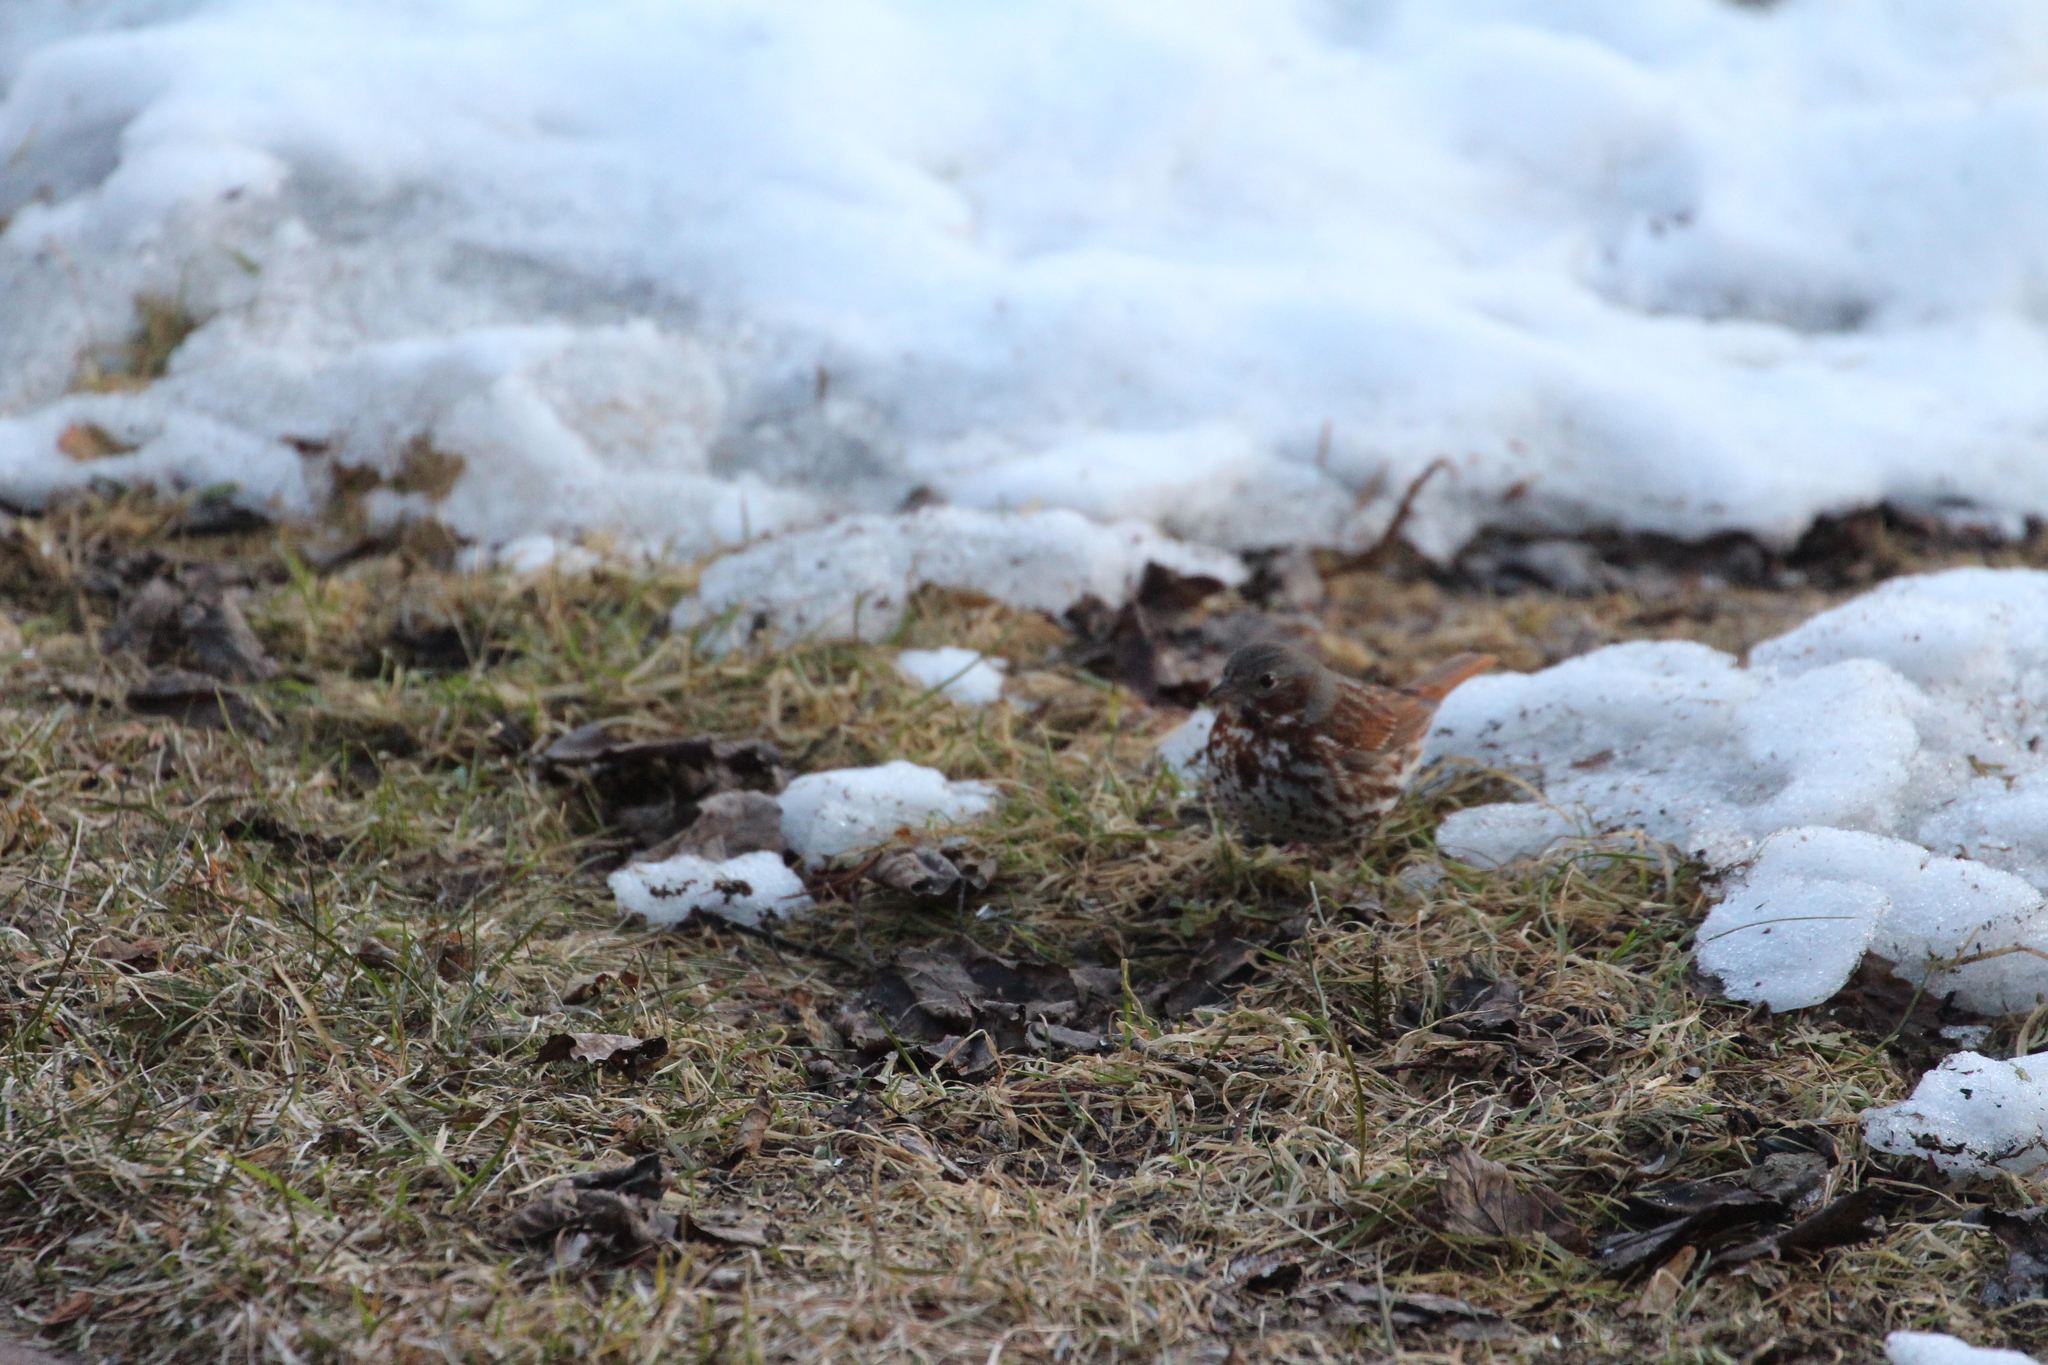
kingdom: Animalia
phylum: Chordata
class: Aves
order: Passeriformes
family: Passerellidae
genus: Passerella
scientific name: Passerella iliaca
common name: Fox sparrow
